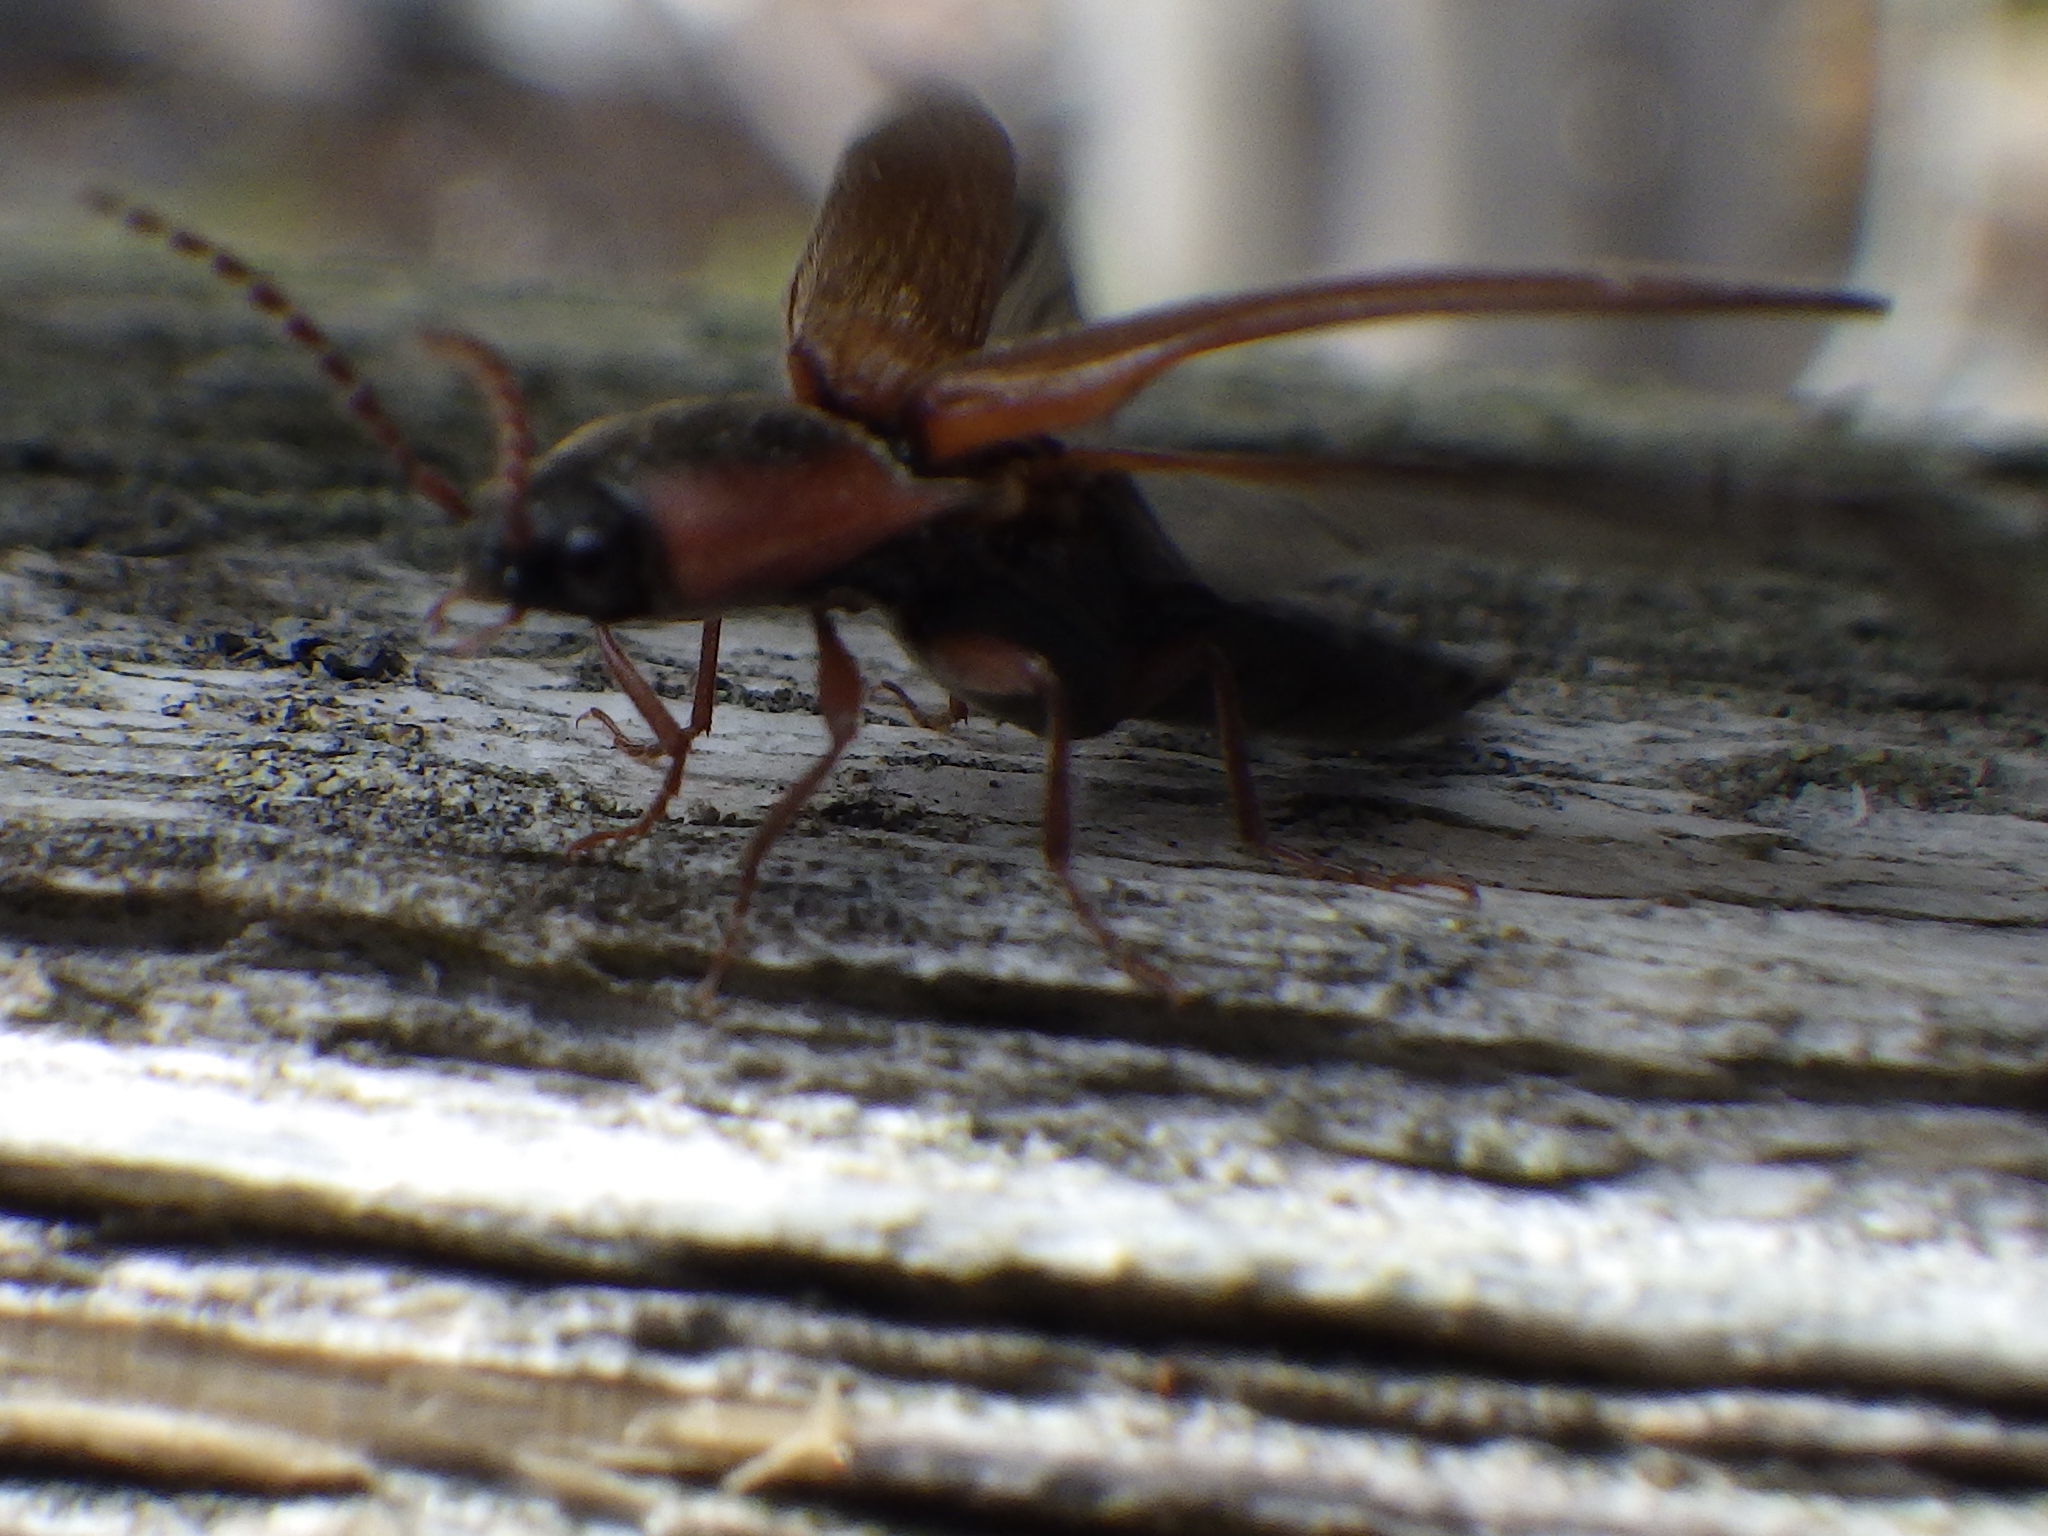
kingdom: Animalia
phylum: Arthropoda
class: Insecta
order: Coleoptera
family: Elateridae
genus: Agriotes
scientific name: Agriotes collaris
